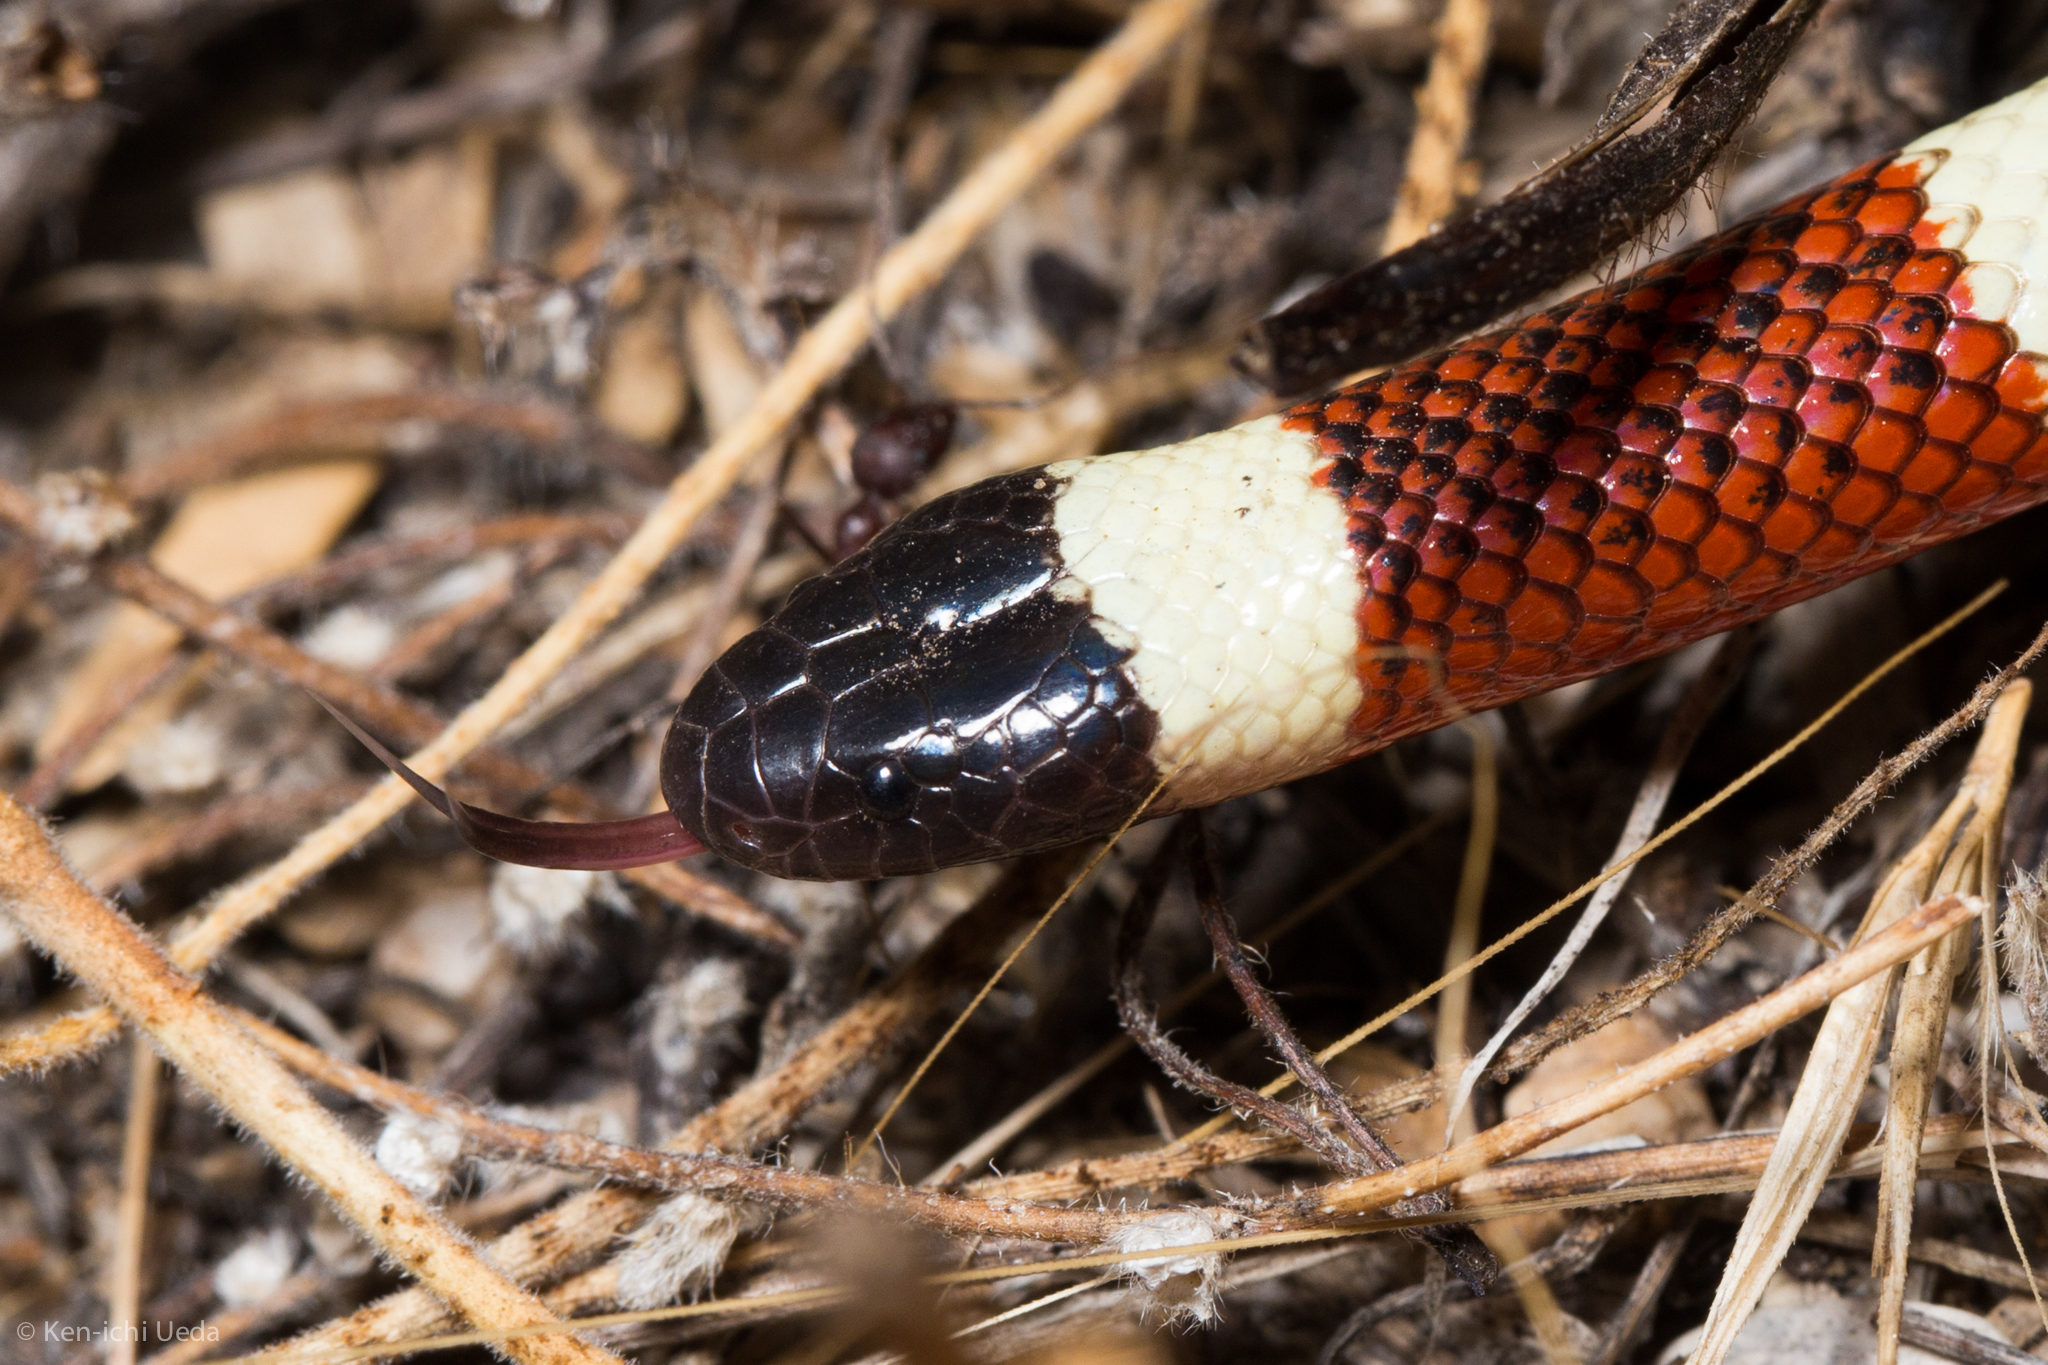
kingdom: Animalia
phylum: Chordata
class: Squamata
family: Elapidae
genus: Micruroides
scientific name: Micruroides euryxanthus
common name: Western coral snake
